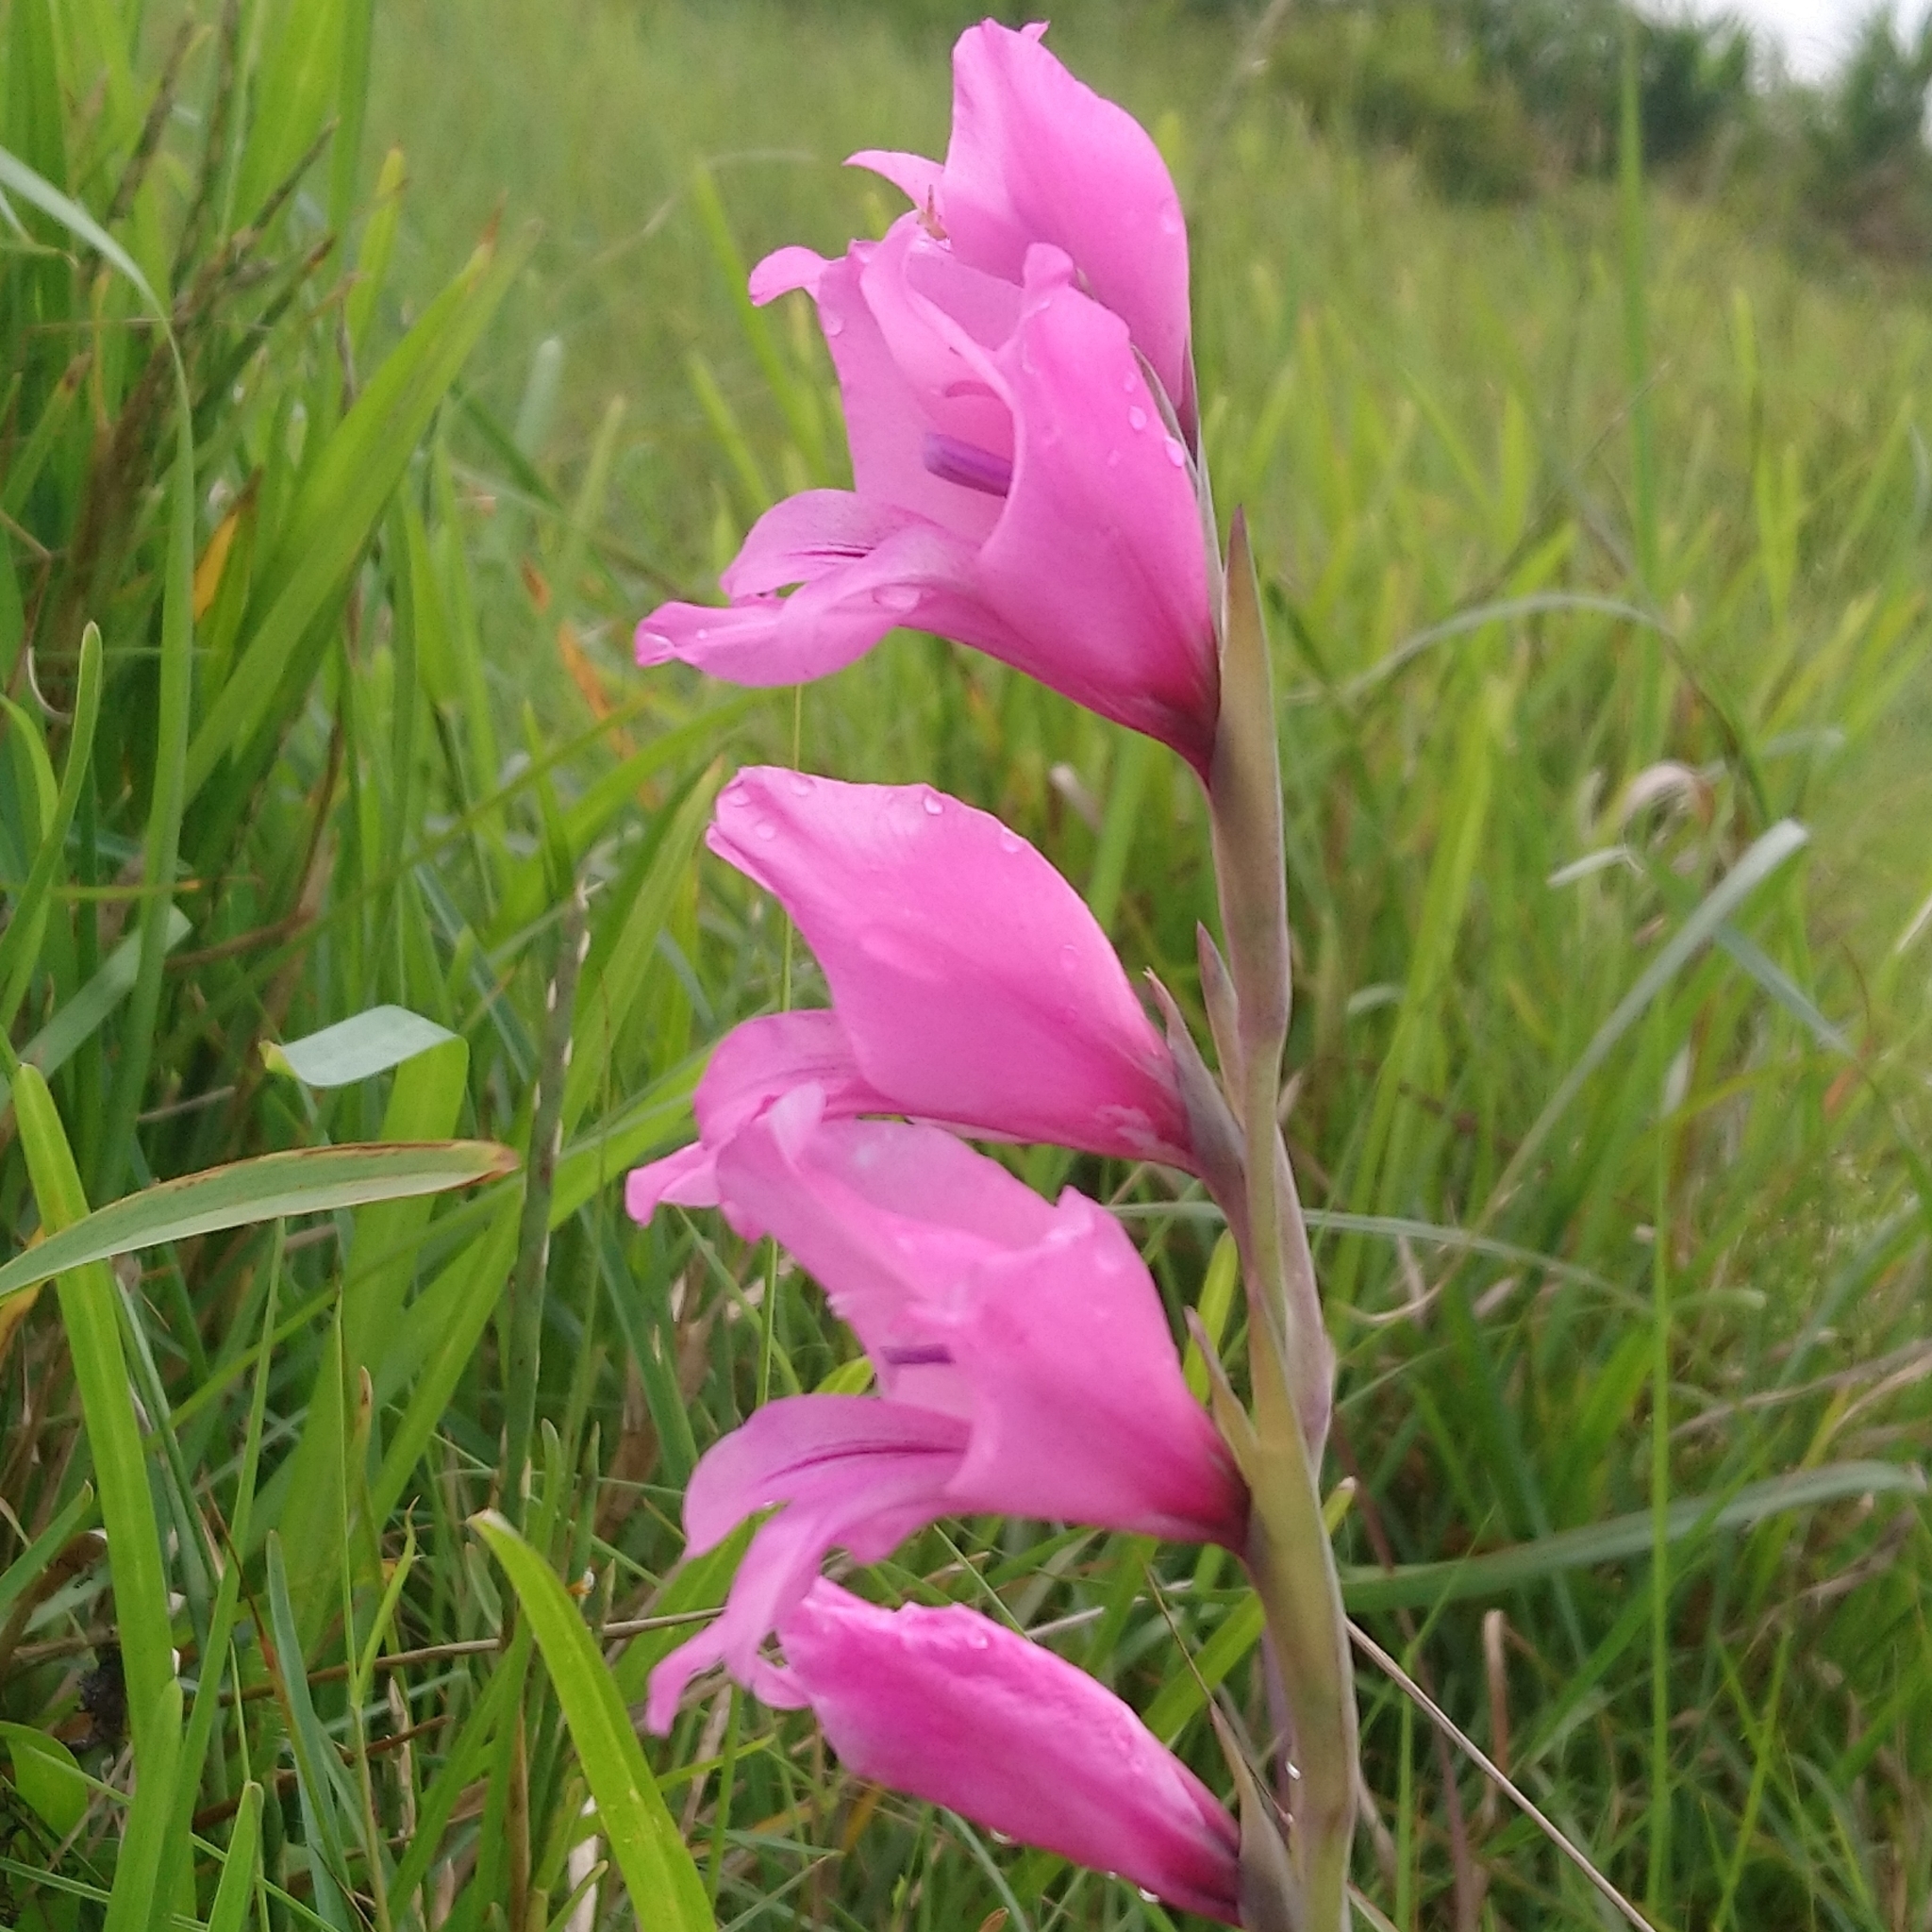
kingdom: Plantae
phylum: Tracheophyta
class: Liliopsida
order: Asparagales
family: Iridaceae
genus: Gladiolus
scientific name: Gladiolus ochroleucus
